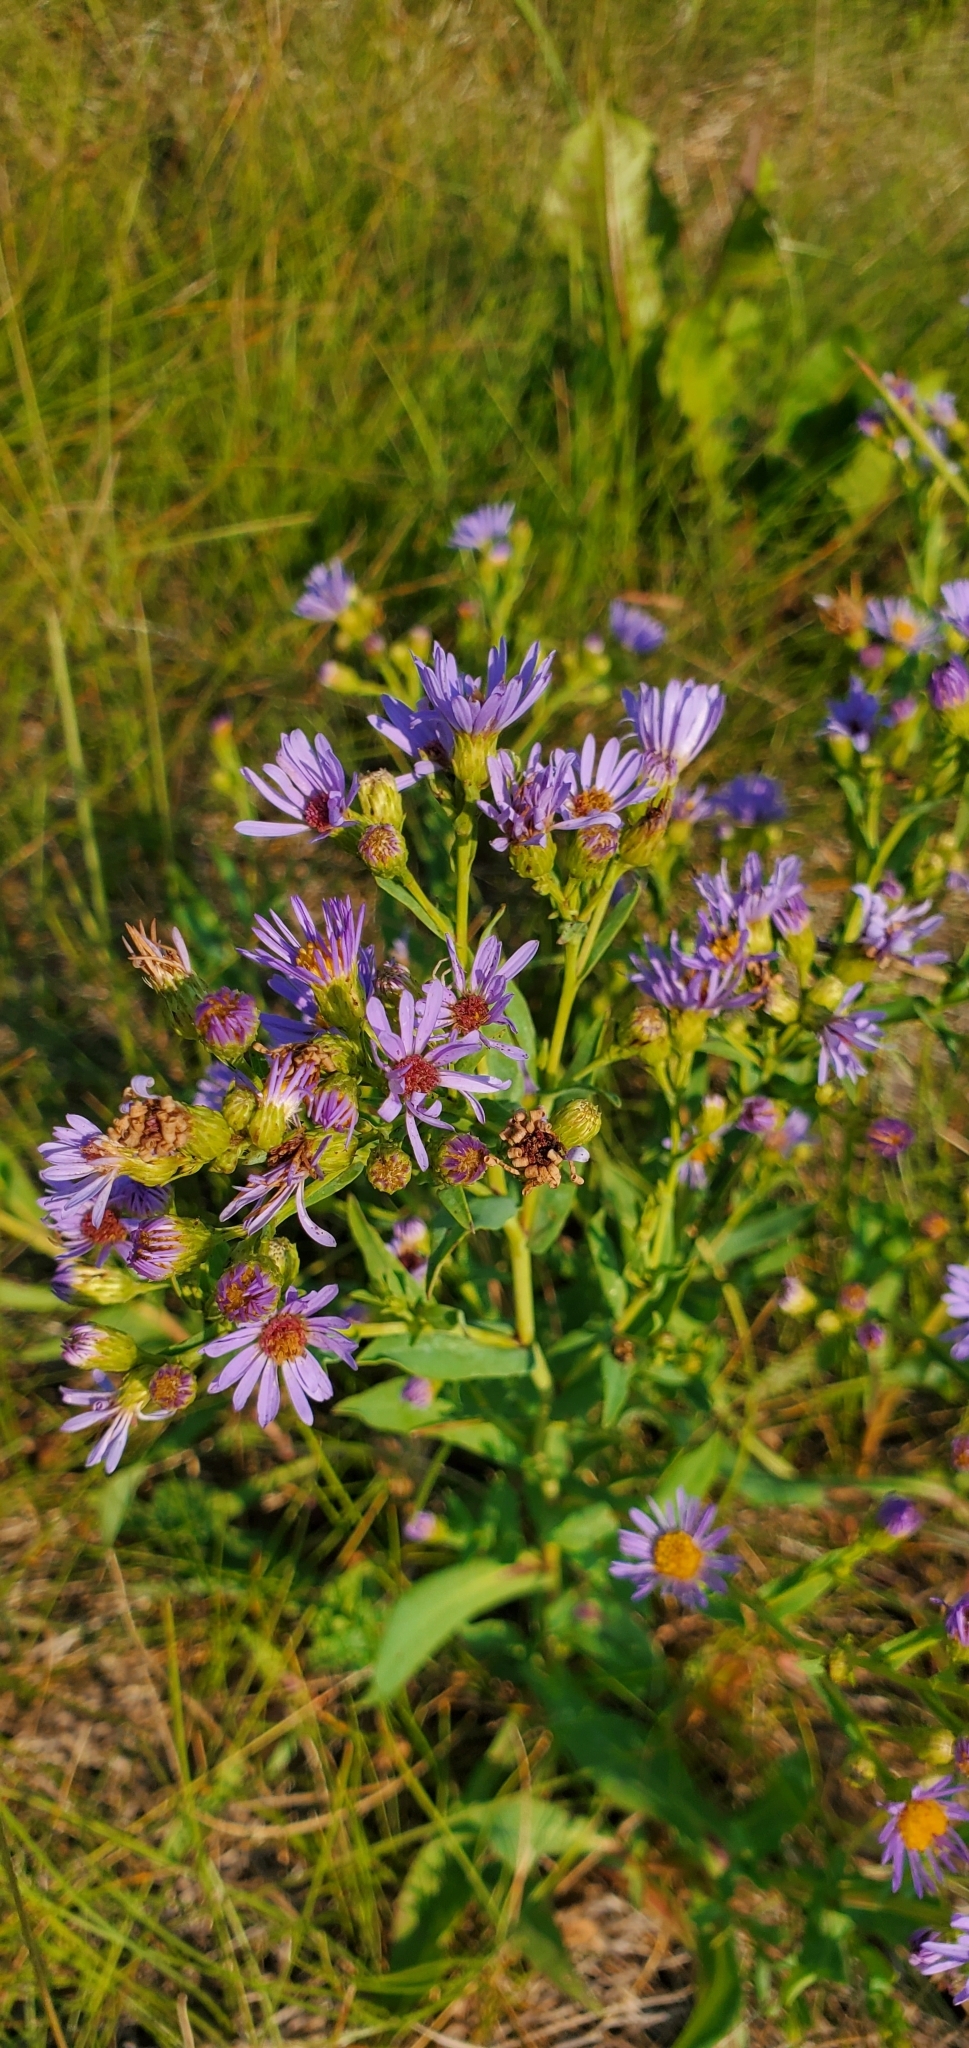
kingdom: Plantae
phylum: Tracheophyta
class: Magnoliopsida
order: Asterales
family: Asteraceae
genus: Symphyotrichum
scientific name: Symphyotrichum laeve
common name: Glaucous aster
